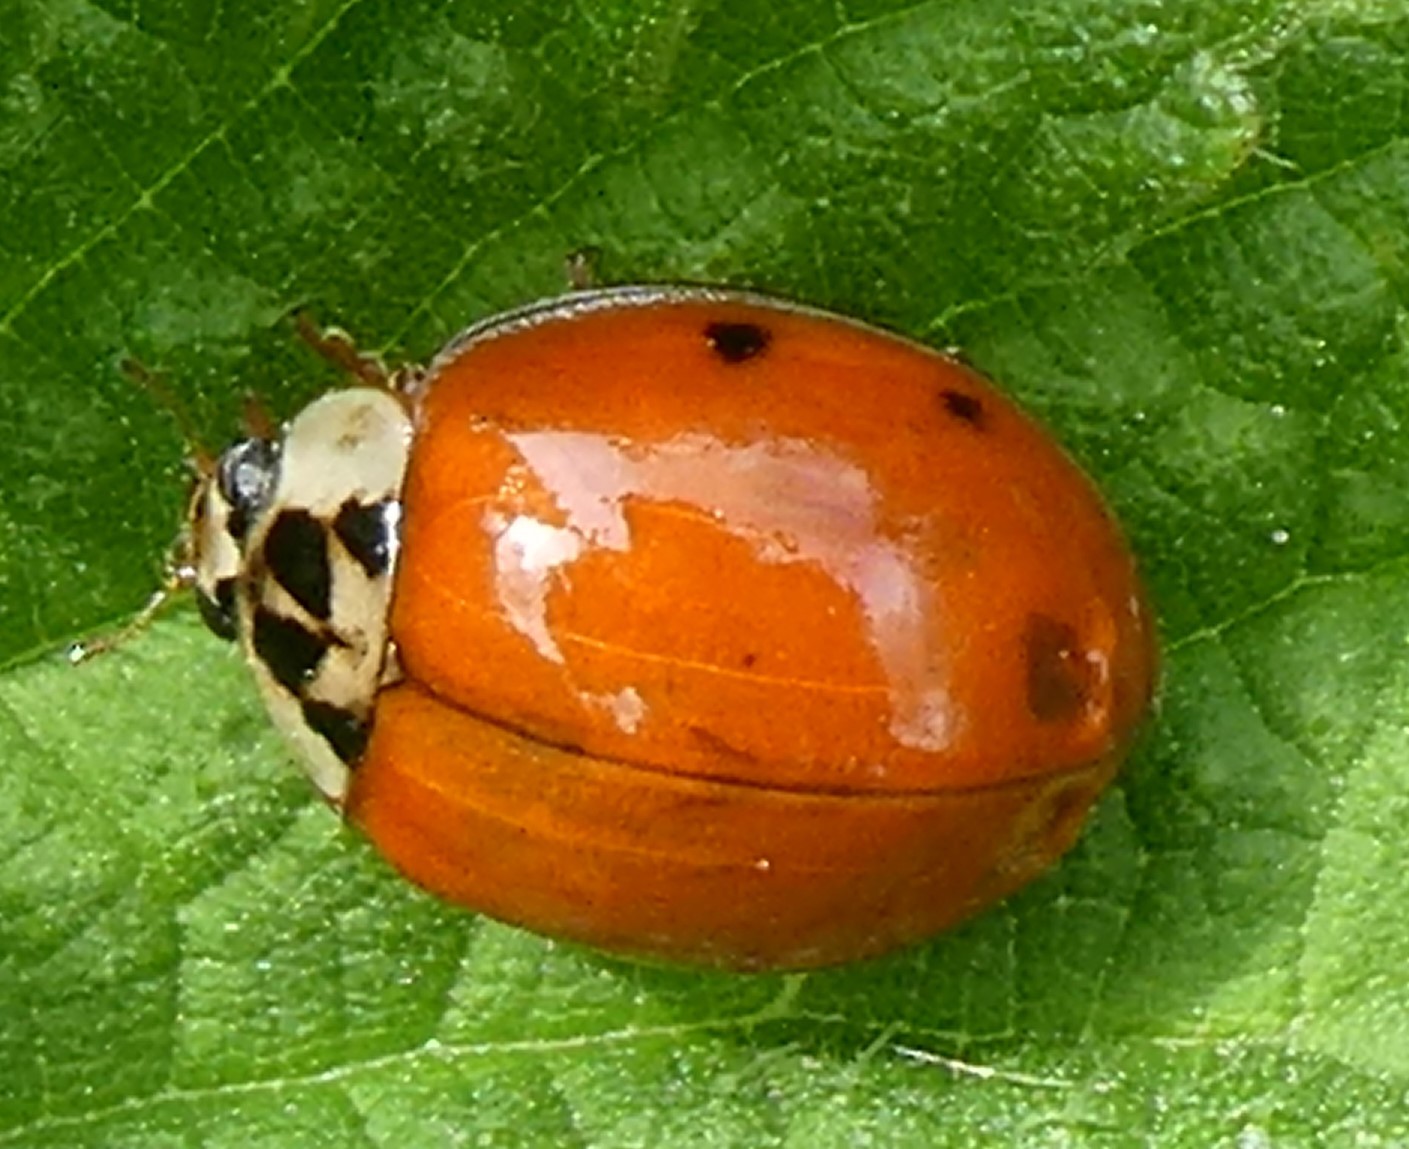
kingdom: Animalia
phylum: Arthropoda
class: Insecta
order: Coleoptera
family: Coccinellidae
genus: Harmonia
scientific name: Harmonia axyridis
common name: Harlequin ladybird
